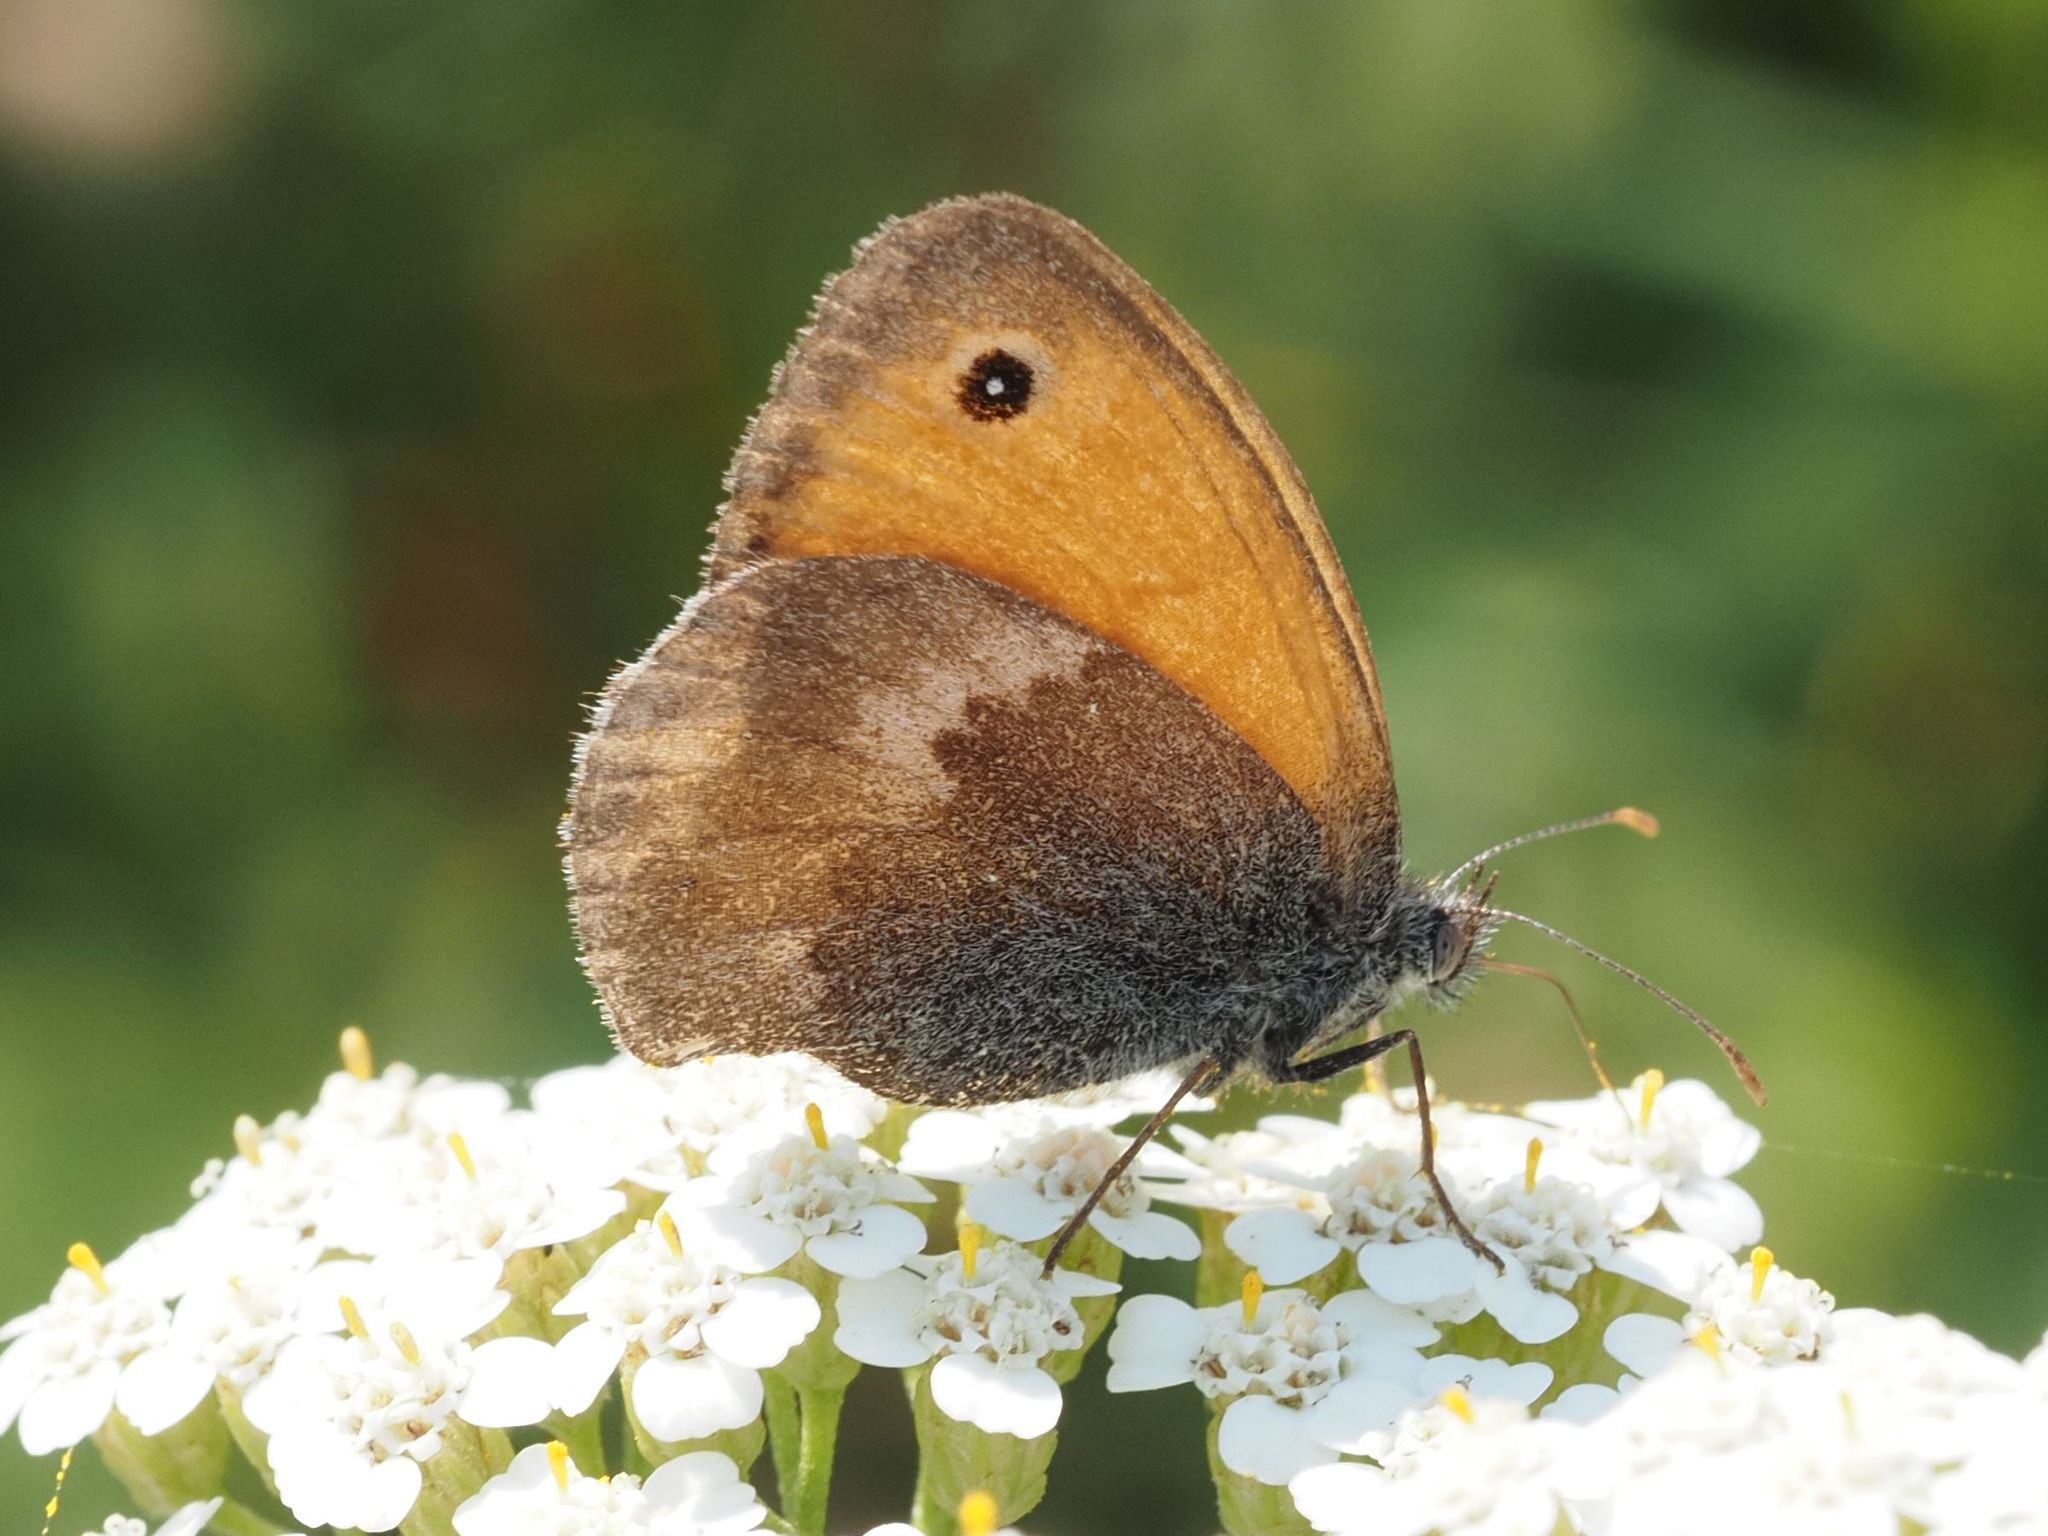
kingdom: Animalia
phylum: Arthropoda
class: Insecta
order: Lepidoptera
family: Nymphalidae
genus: Coenonympha
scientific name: Coenonympha pamphilus
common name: Small heath
